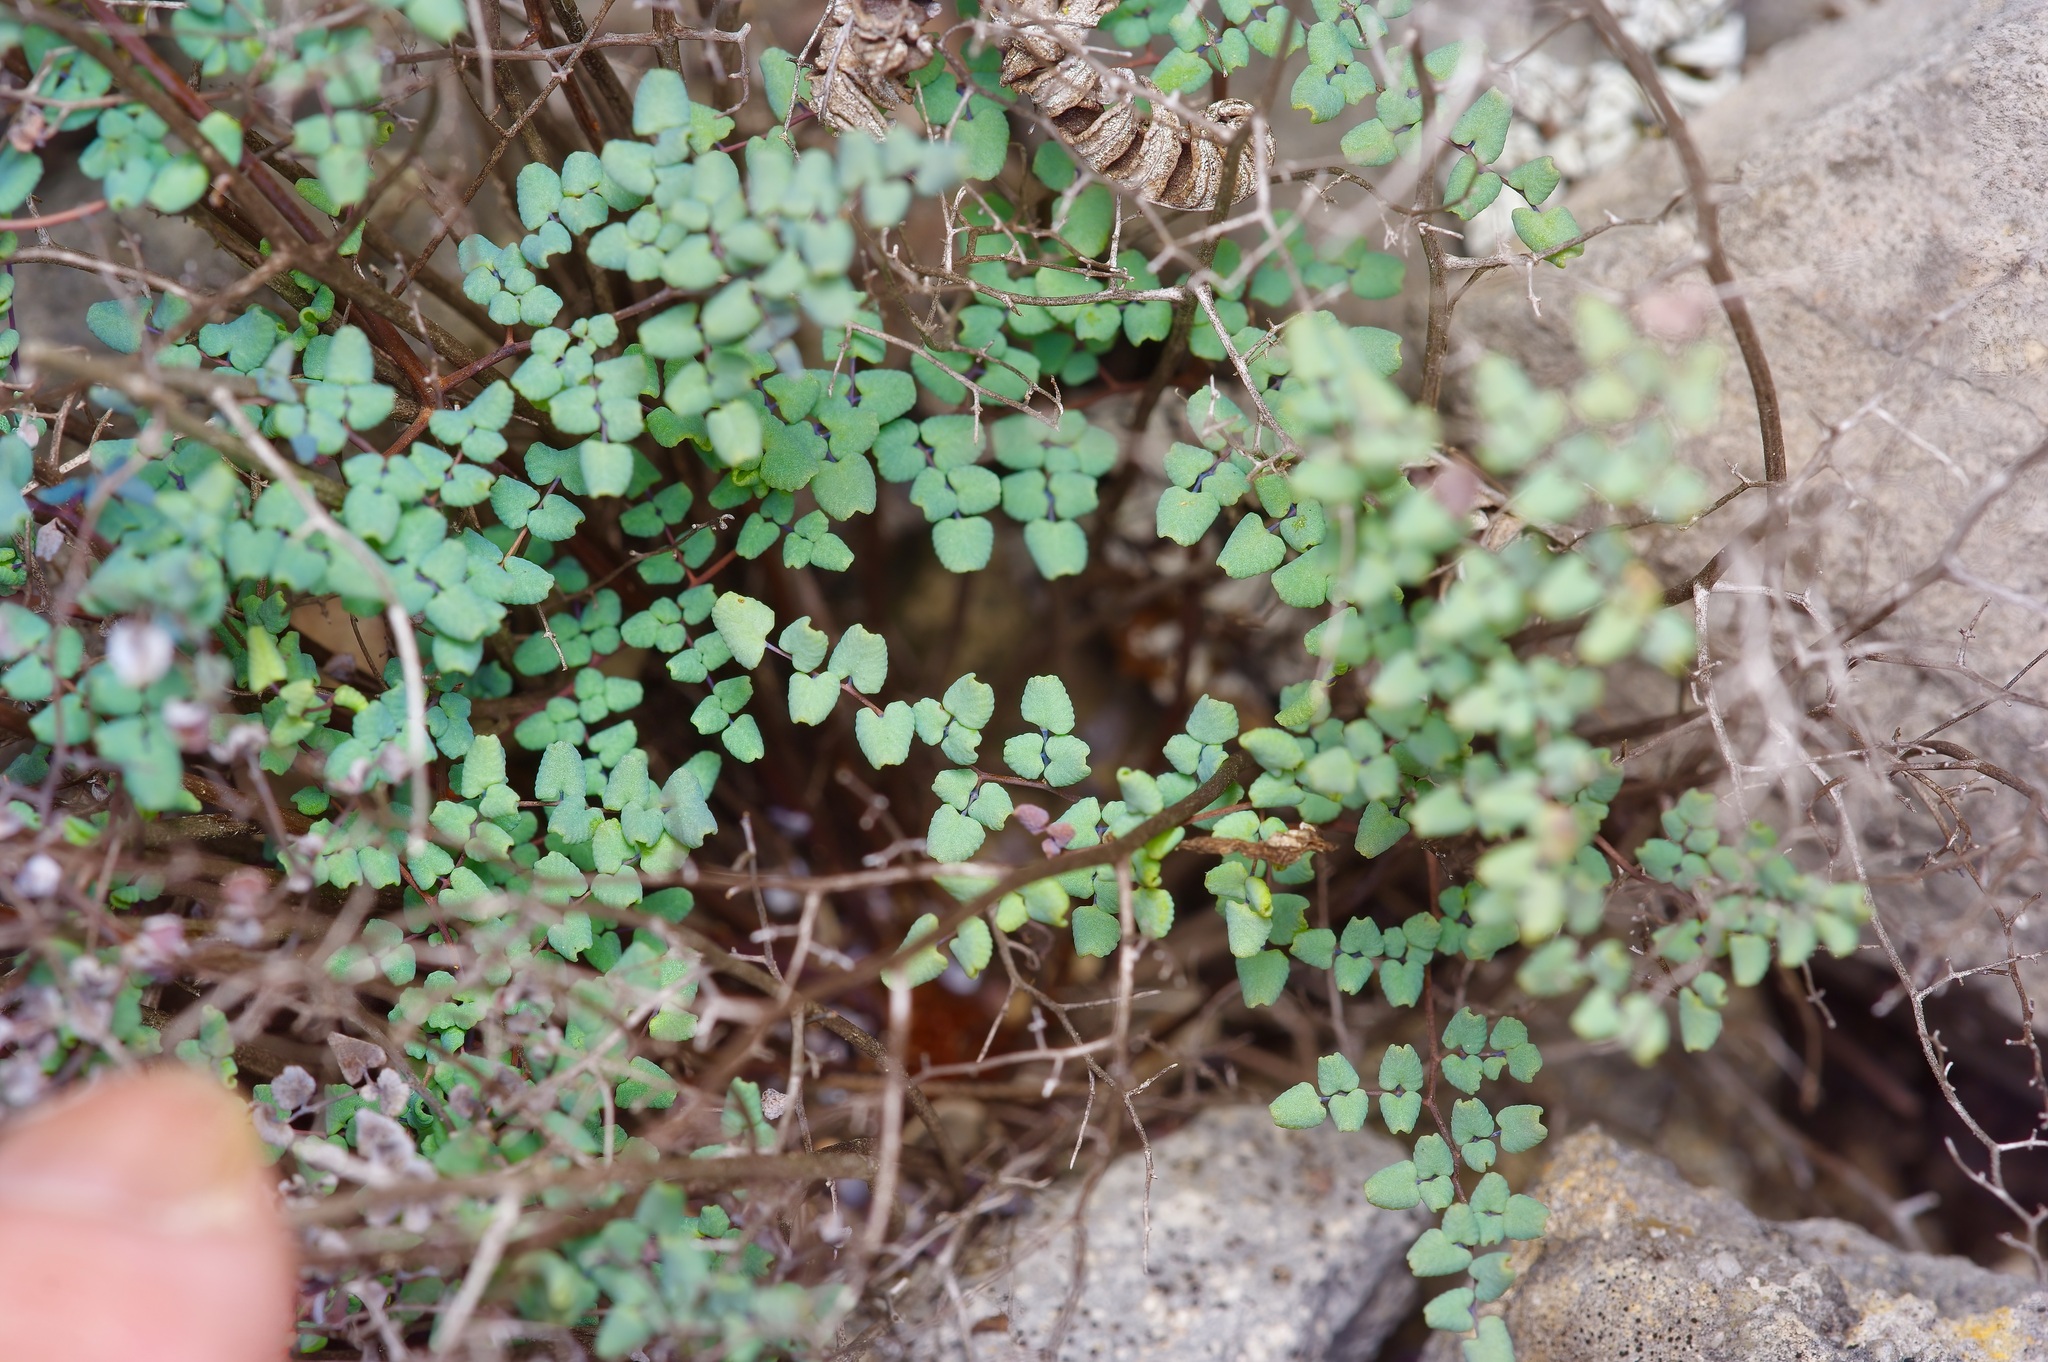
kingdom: Plantae
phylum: Tracheophyta
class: Polypodiopsida
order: Polypodiales
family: Pteridaceae
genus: Argyrochosma
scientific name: Argyrochosma microphylla
